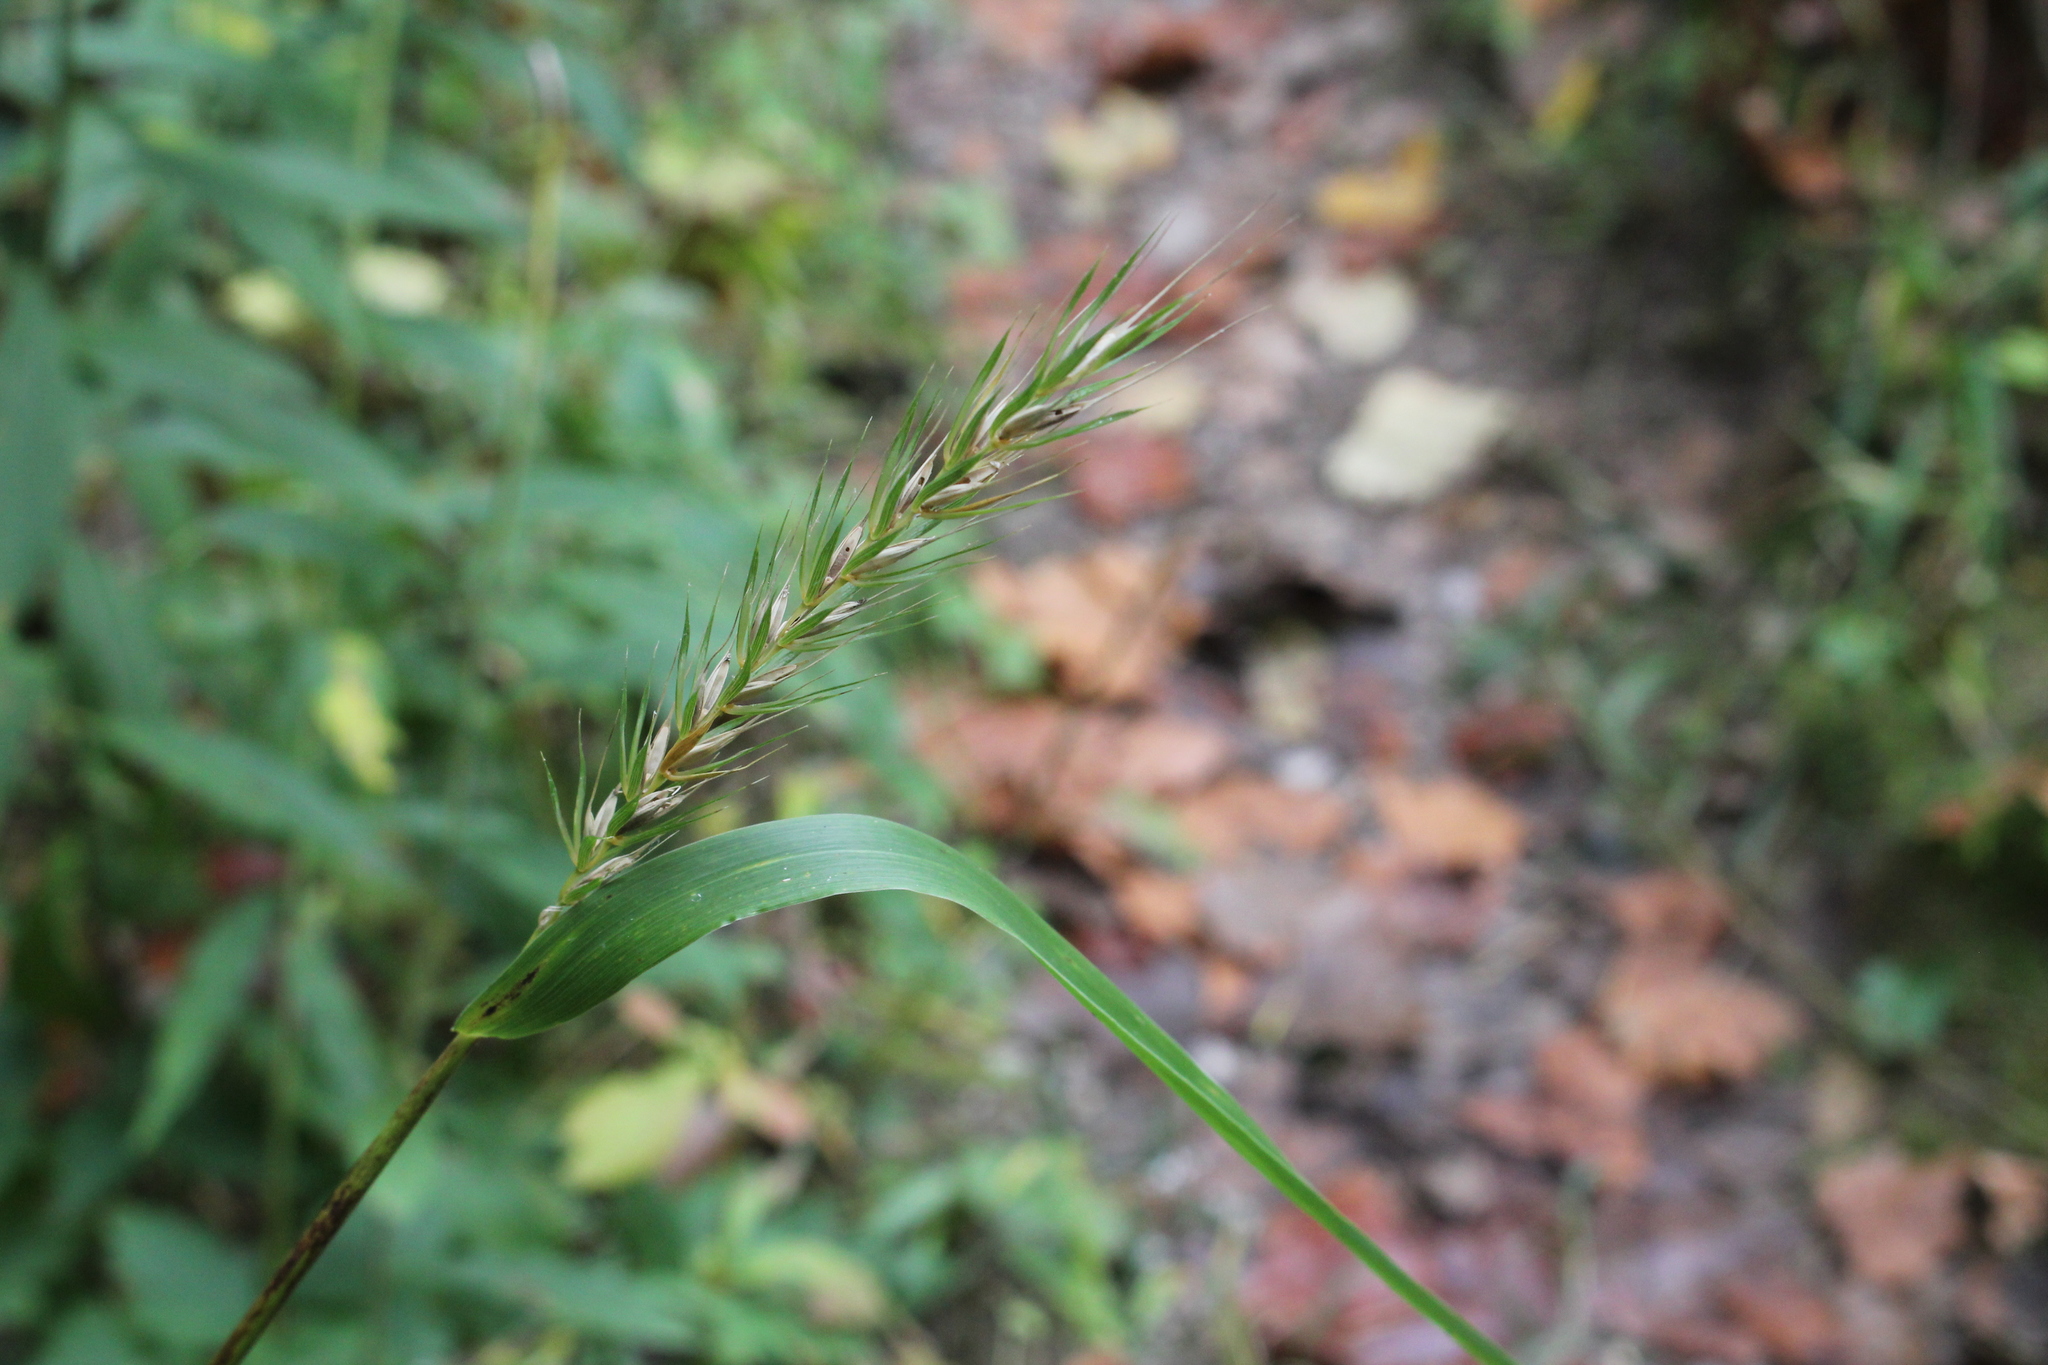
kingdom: Plantae
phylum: Tracheophyta
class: Liliopsida
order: Poales
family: Poaceae
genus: Elymus
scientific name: Elymus virginicus
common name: Common eastern wildrye
